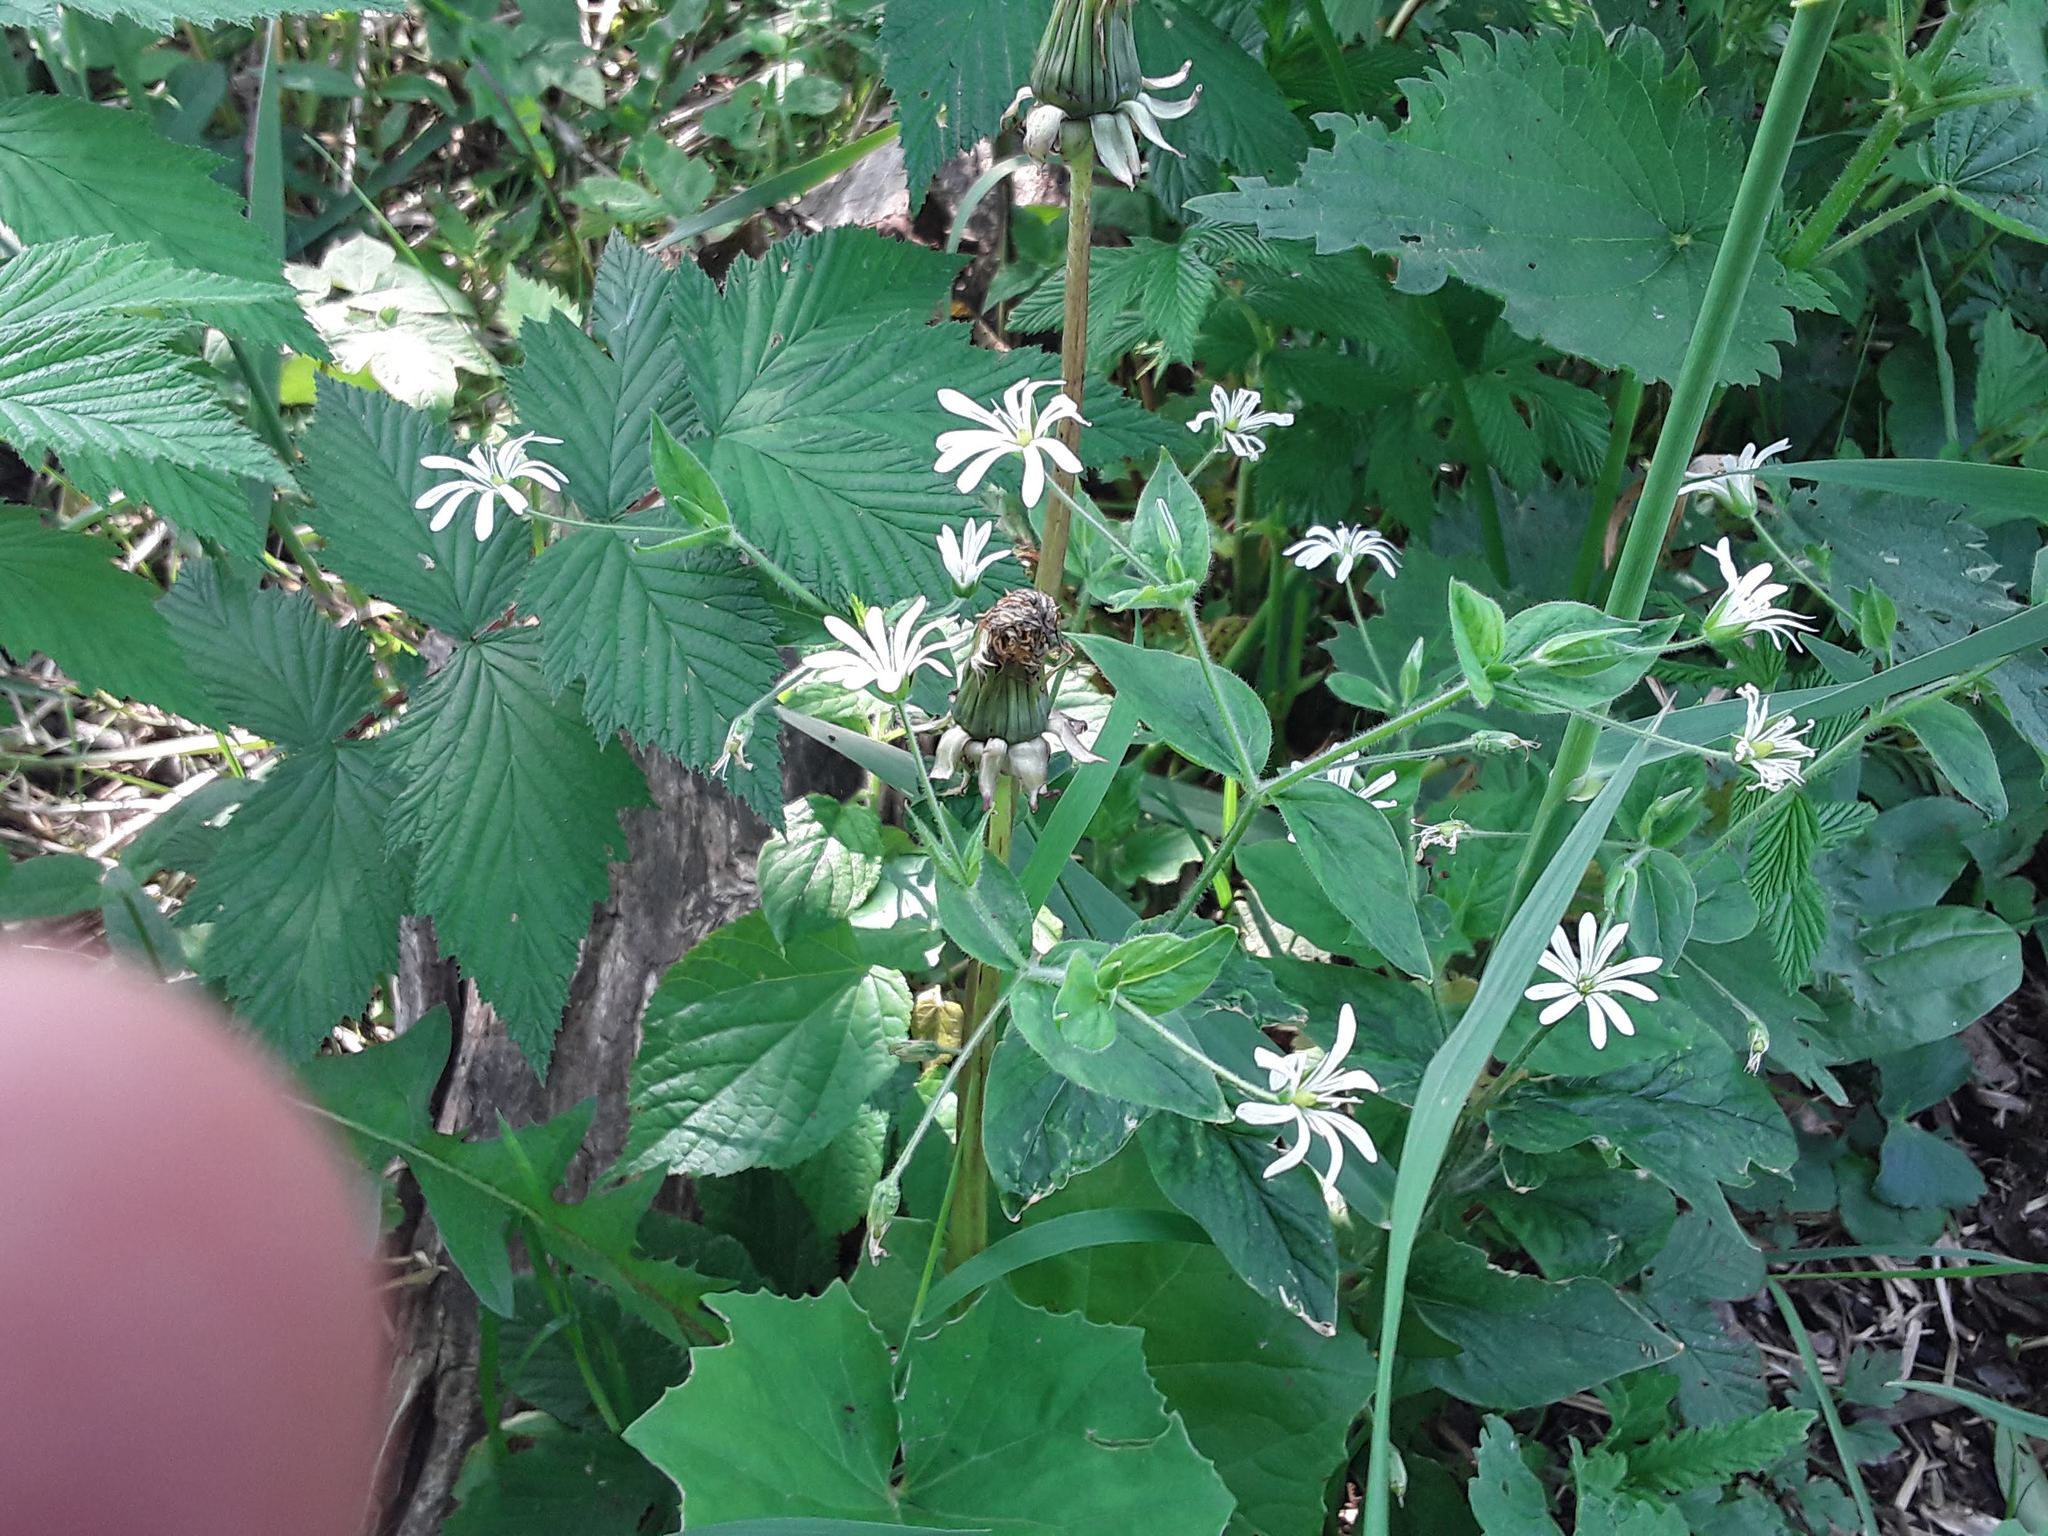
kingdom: Plantae
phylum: Tracheophyta
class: Magnoliopsida
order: Caryophyllales
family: Caryophyllaceae
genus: Stellaria
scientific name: Stellaria nemorum
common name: Wood stitchwort
